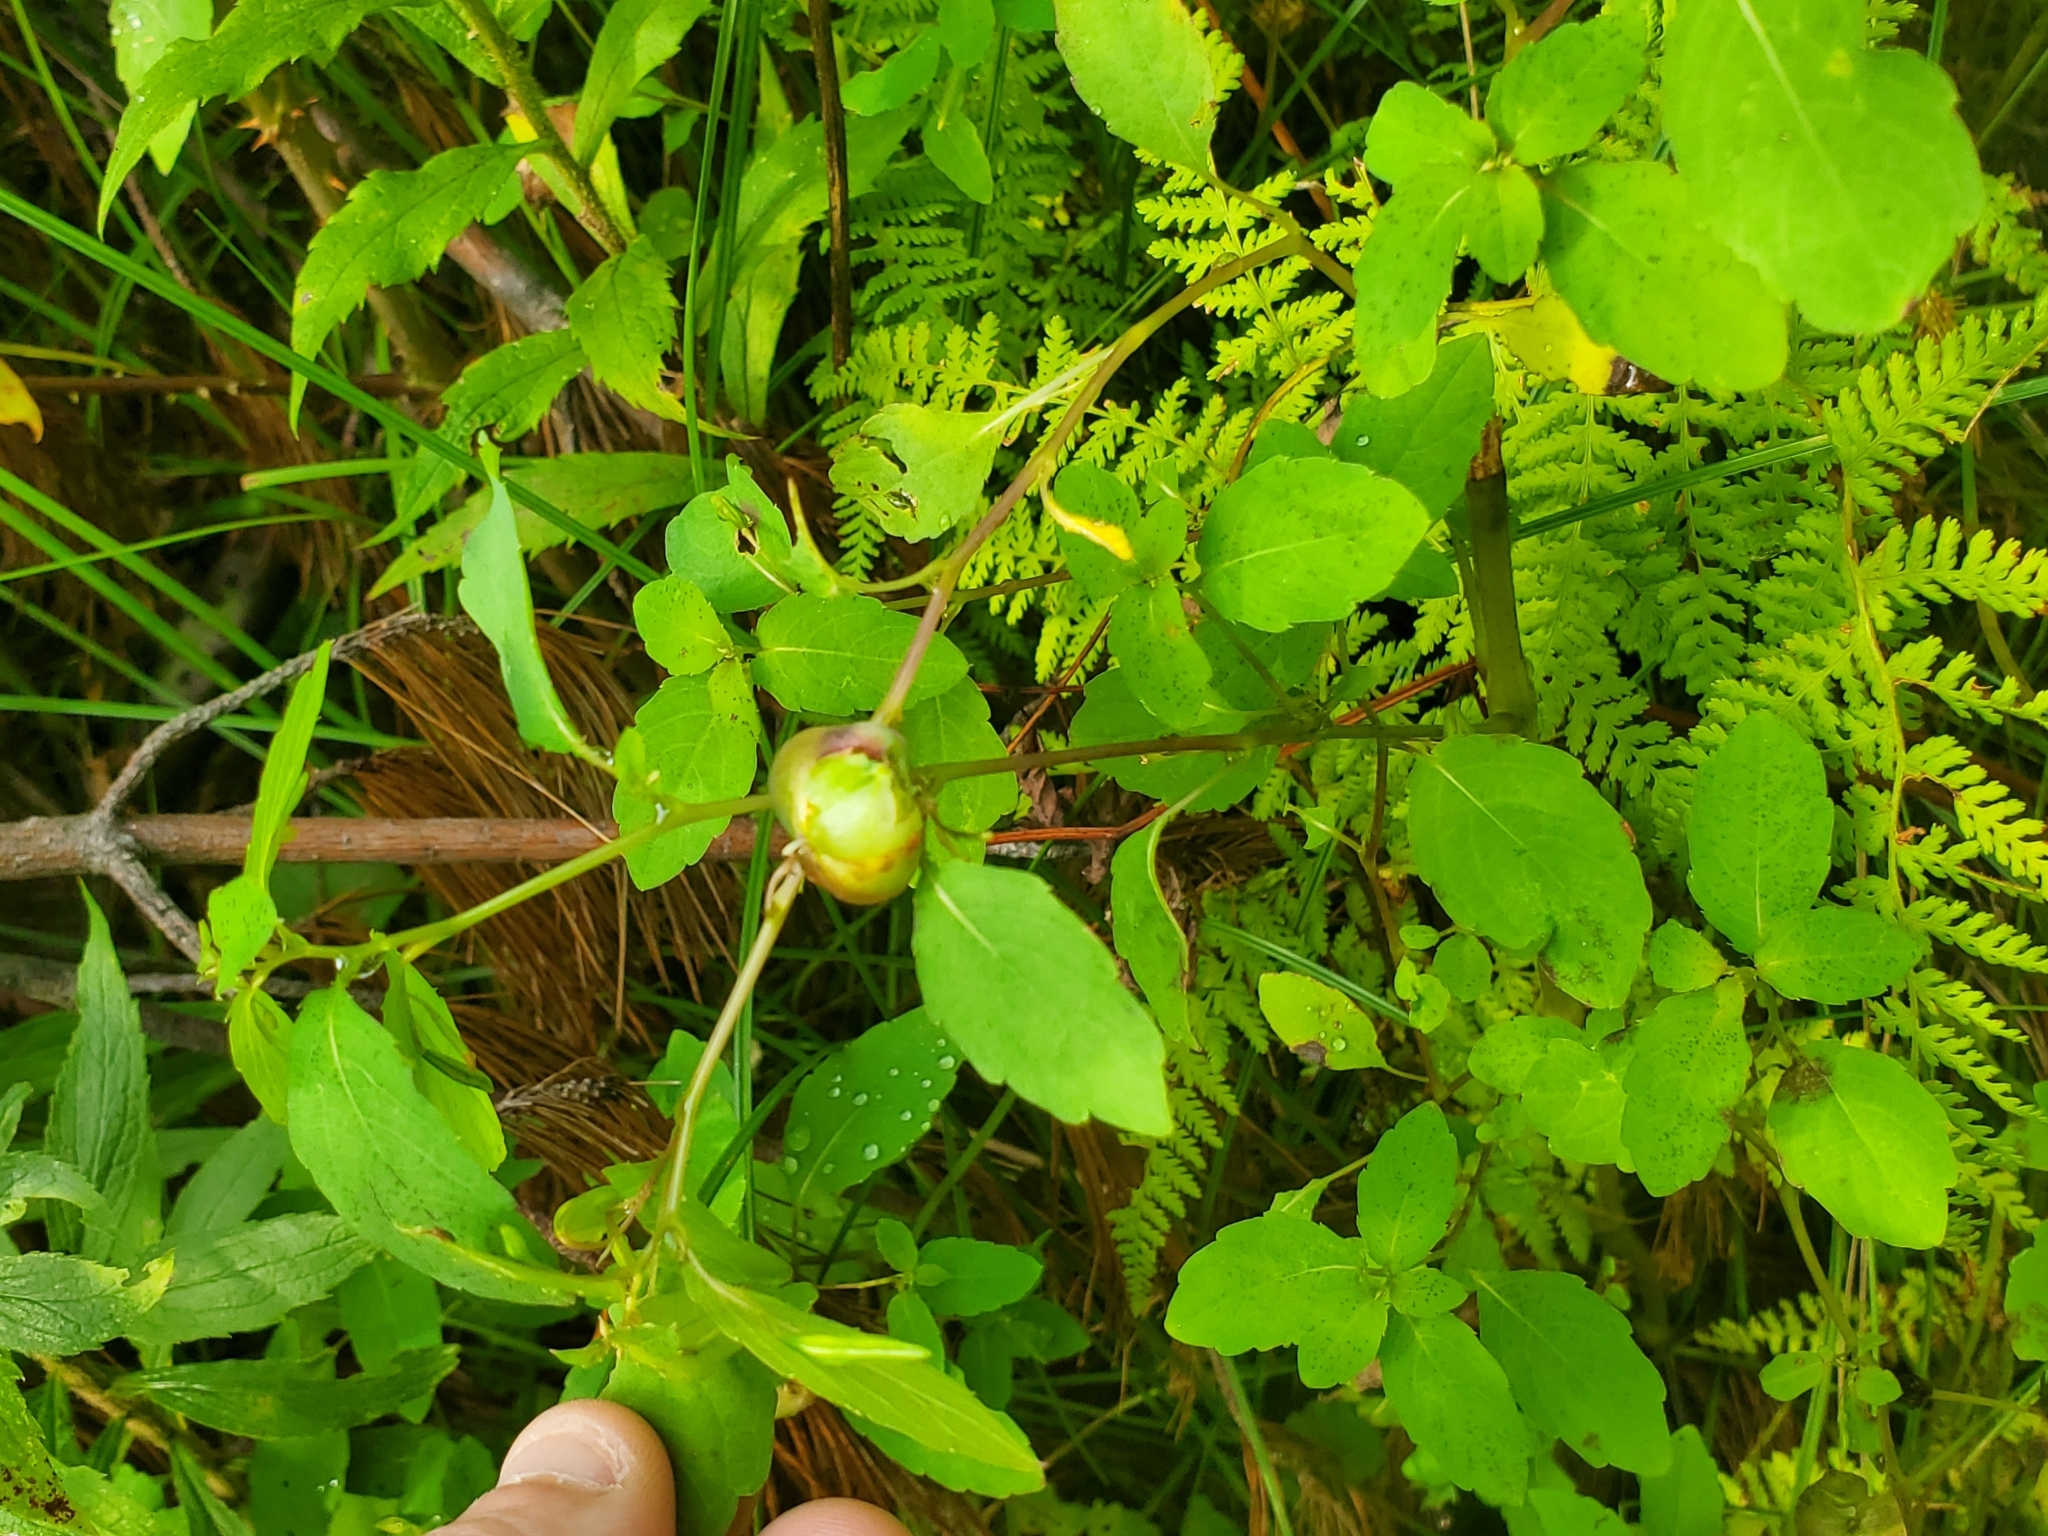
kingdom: Animalia
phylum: Arthropoda
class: Insecta
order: Diptera
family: Cecidomyiidae
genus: Schizomyia
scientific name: Schizomyia impatientis
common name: Jewelweed gall midge
